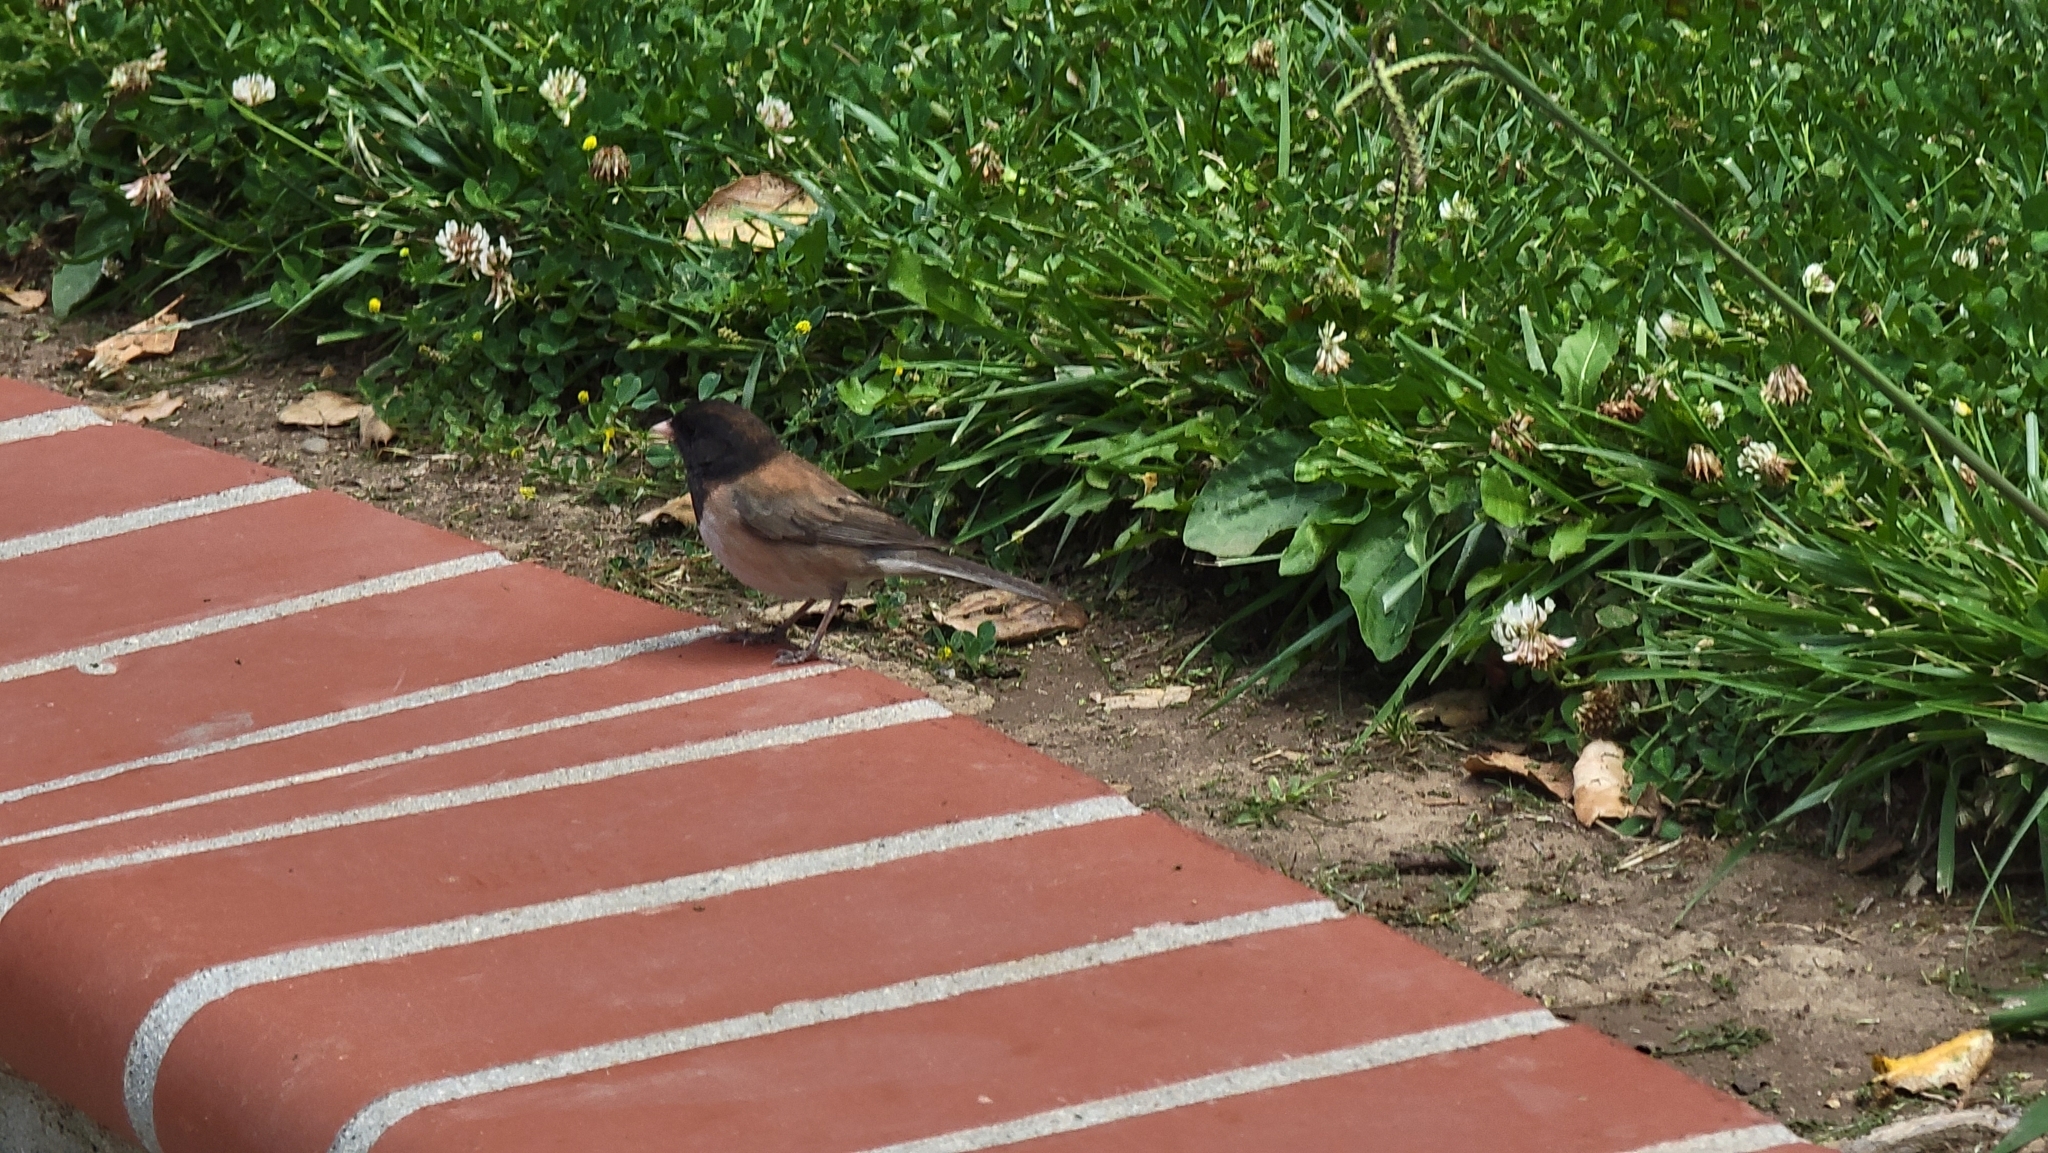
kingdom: Animalia
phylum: Chordata
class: Aves
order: Passeriformes
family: Passerellidae
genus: Junco
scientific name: Junco hyemalis
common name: Dark-eyed junco
